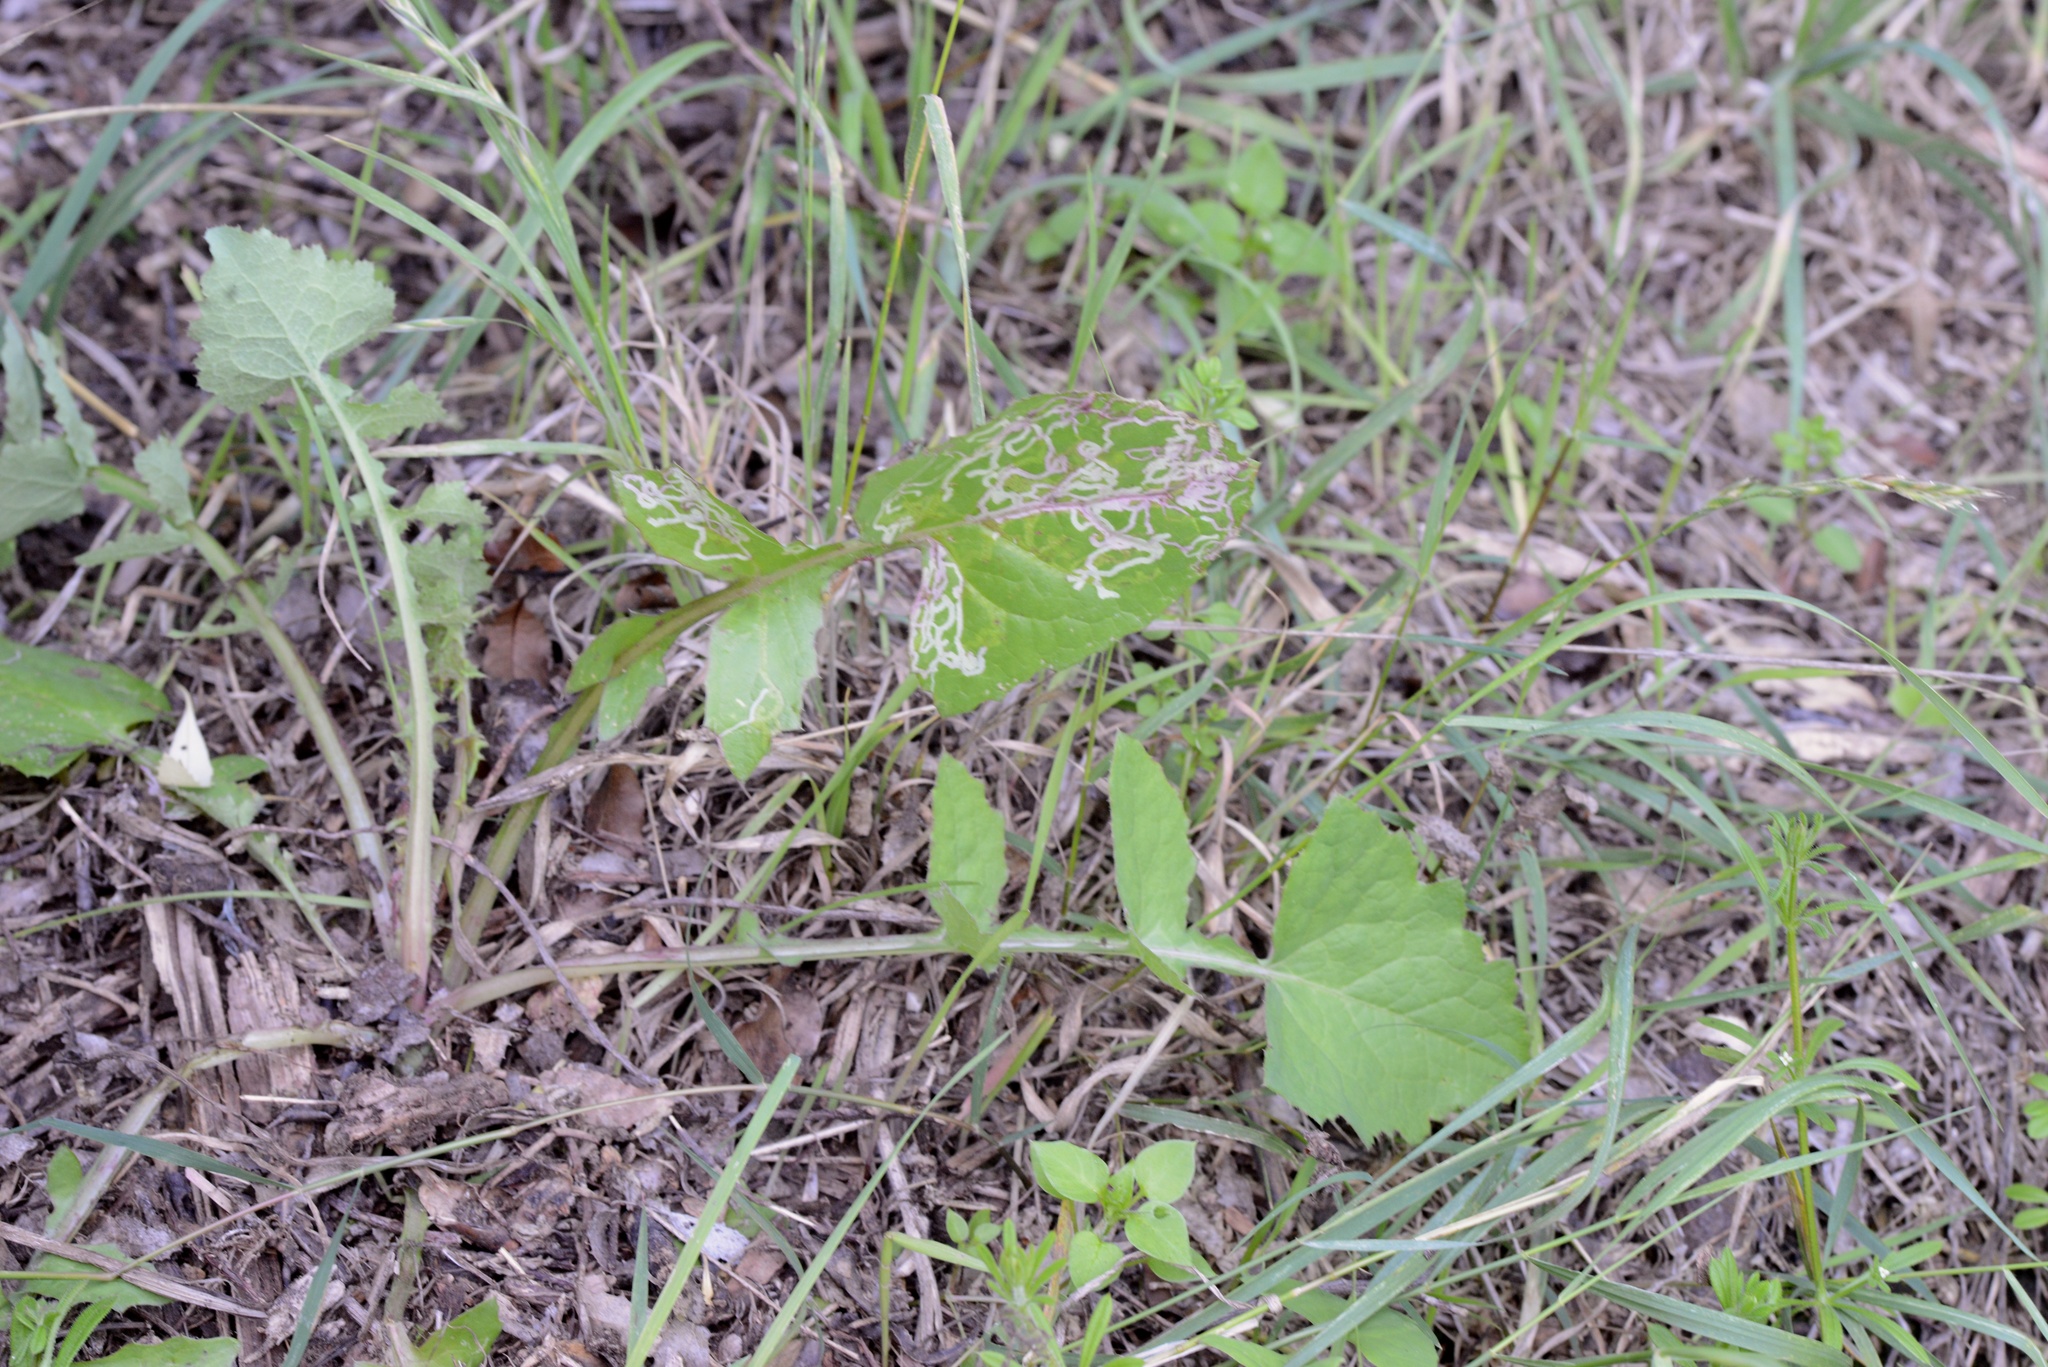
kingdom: Plantae
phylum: Tracheophyta
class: Magnoliopsida
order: Asterales
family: Asteraceae
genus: Sonchus
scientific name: Sonchus oleraceus
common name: Common sowthistle
